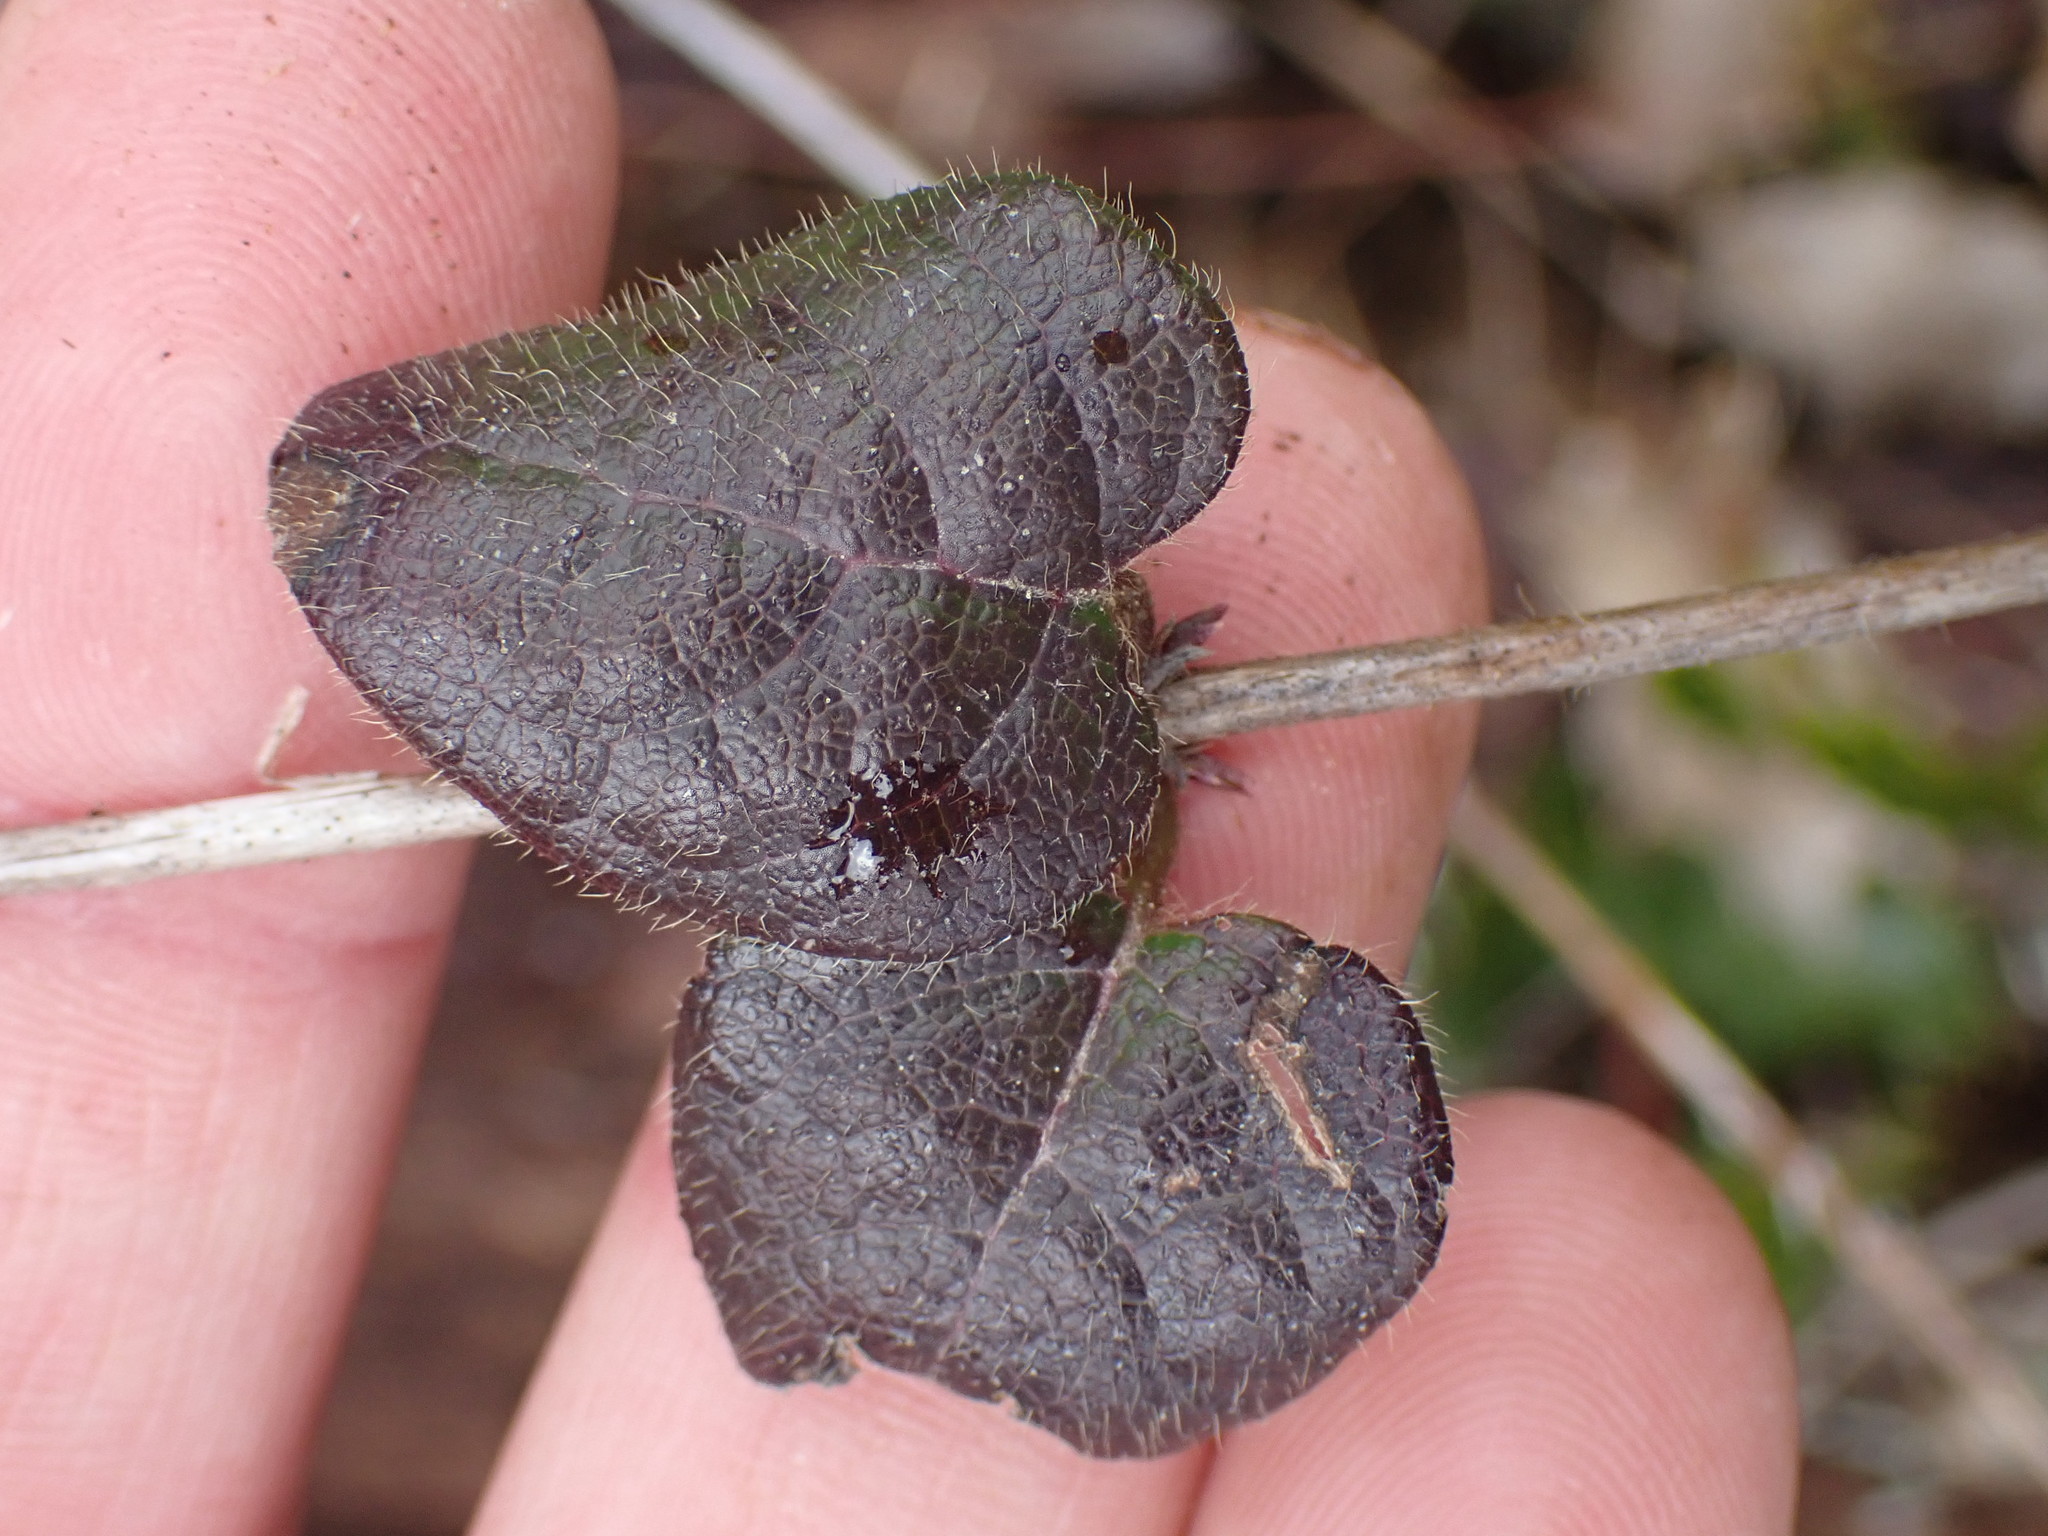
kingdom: Plantae
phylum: Tracheophyta
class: Magnoliopsida
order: Dipsacales
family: Caprifoliaceae
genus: Lonicera
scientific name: Lonicera hispidula
